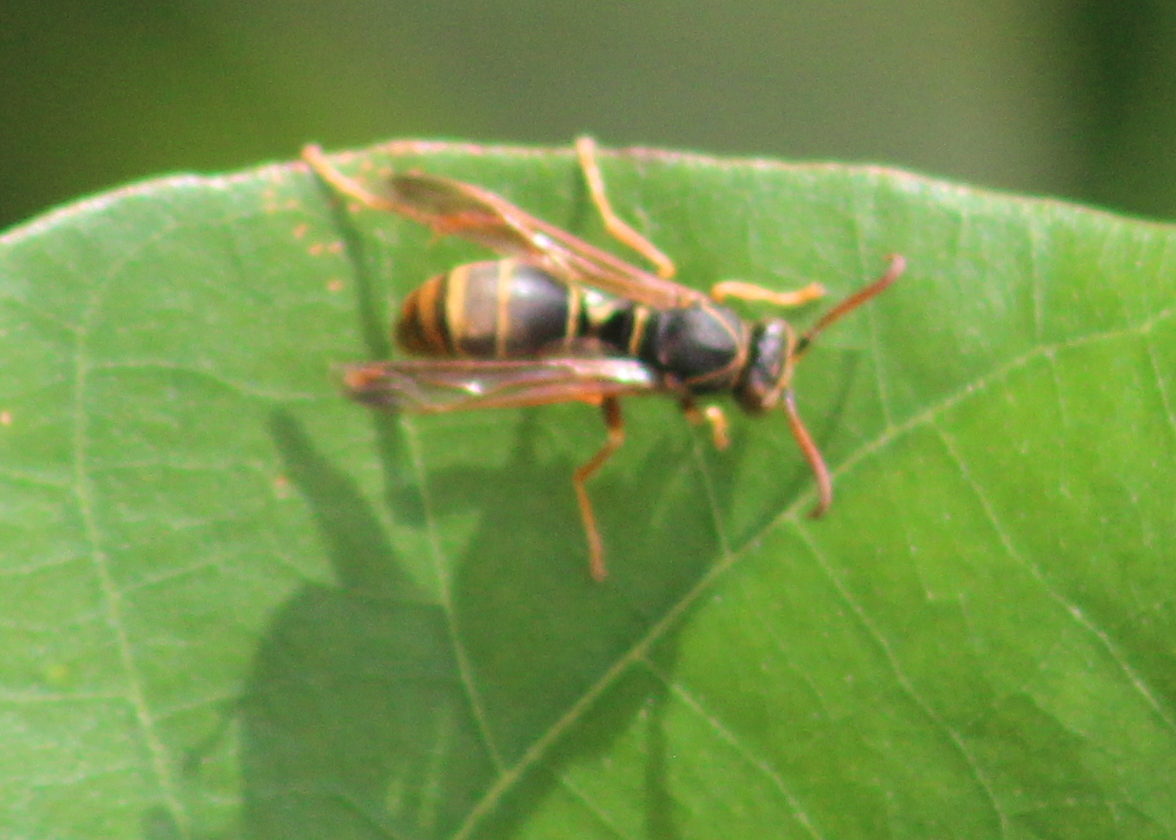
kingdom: Animalia
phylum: Arthropoda
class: Insecta
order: Hymenoptera
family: Eumenidae
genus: Polistes
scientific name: Polistes humilis
